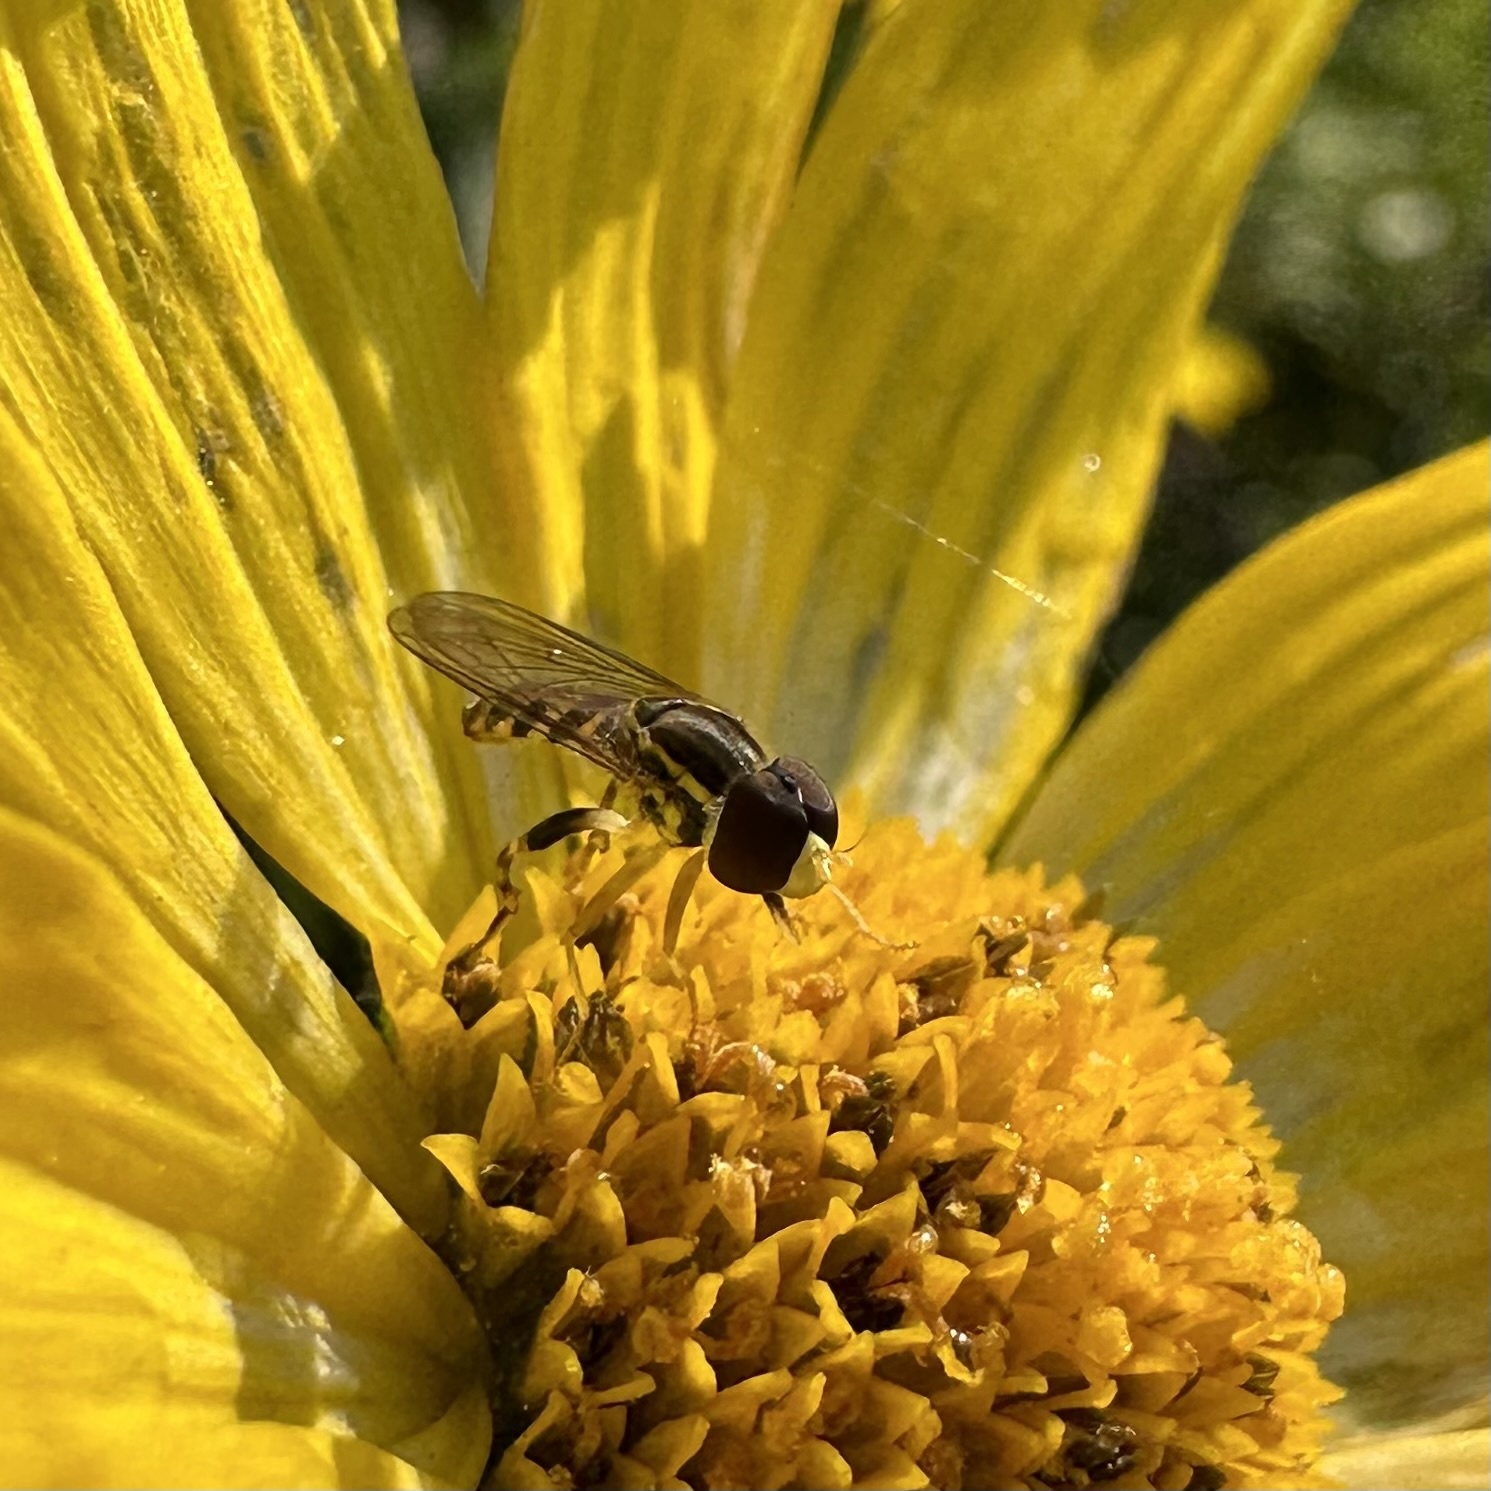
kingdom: Animalia
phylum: Arthropoda
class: Insecta
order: Diptera
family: Syrphidae
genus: Toxomerus
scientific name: Toxomerus geminatus
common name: Eastern calligrapher
